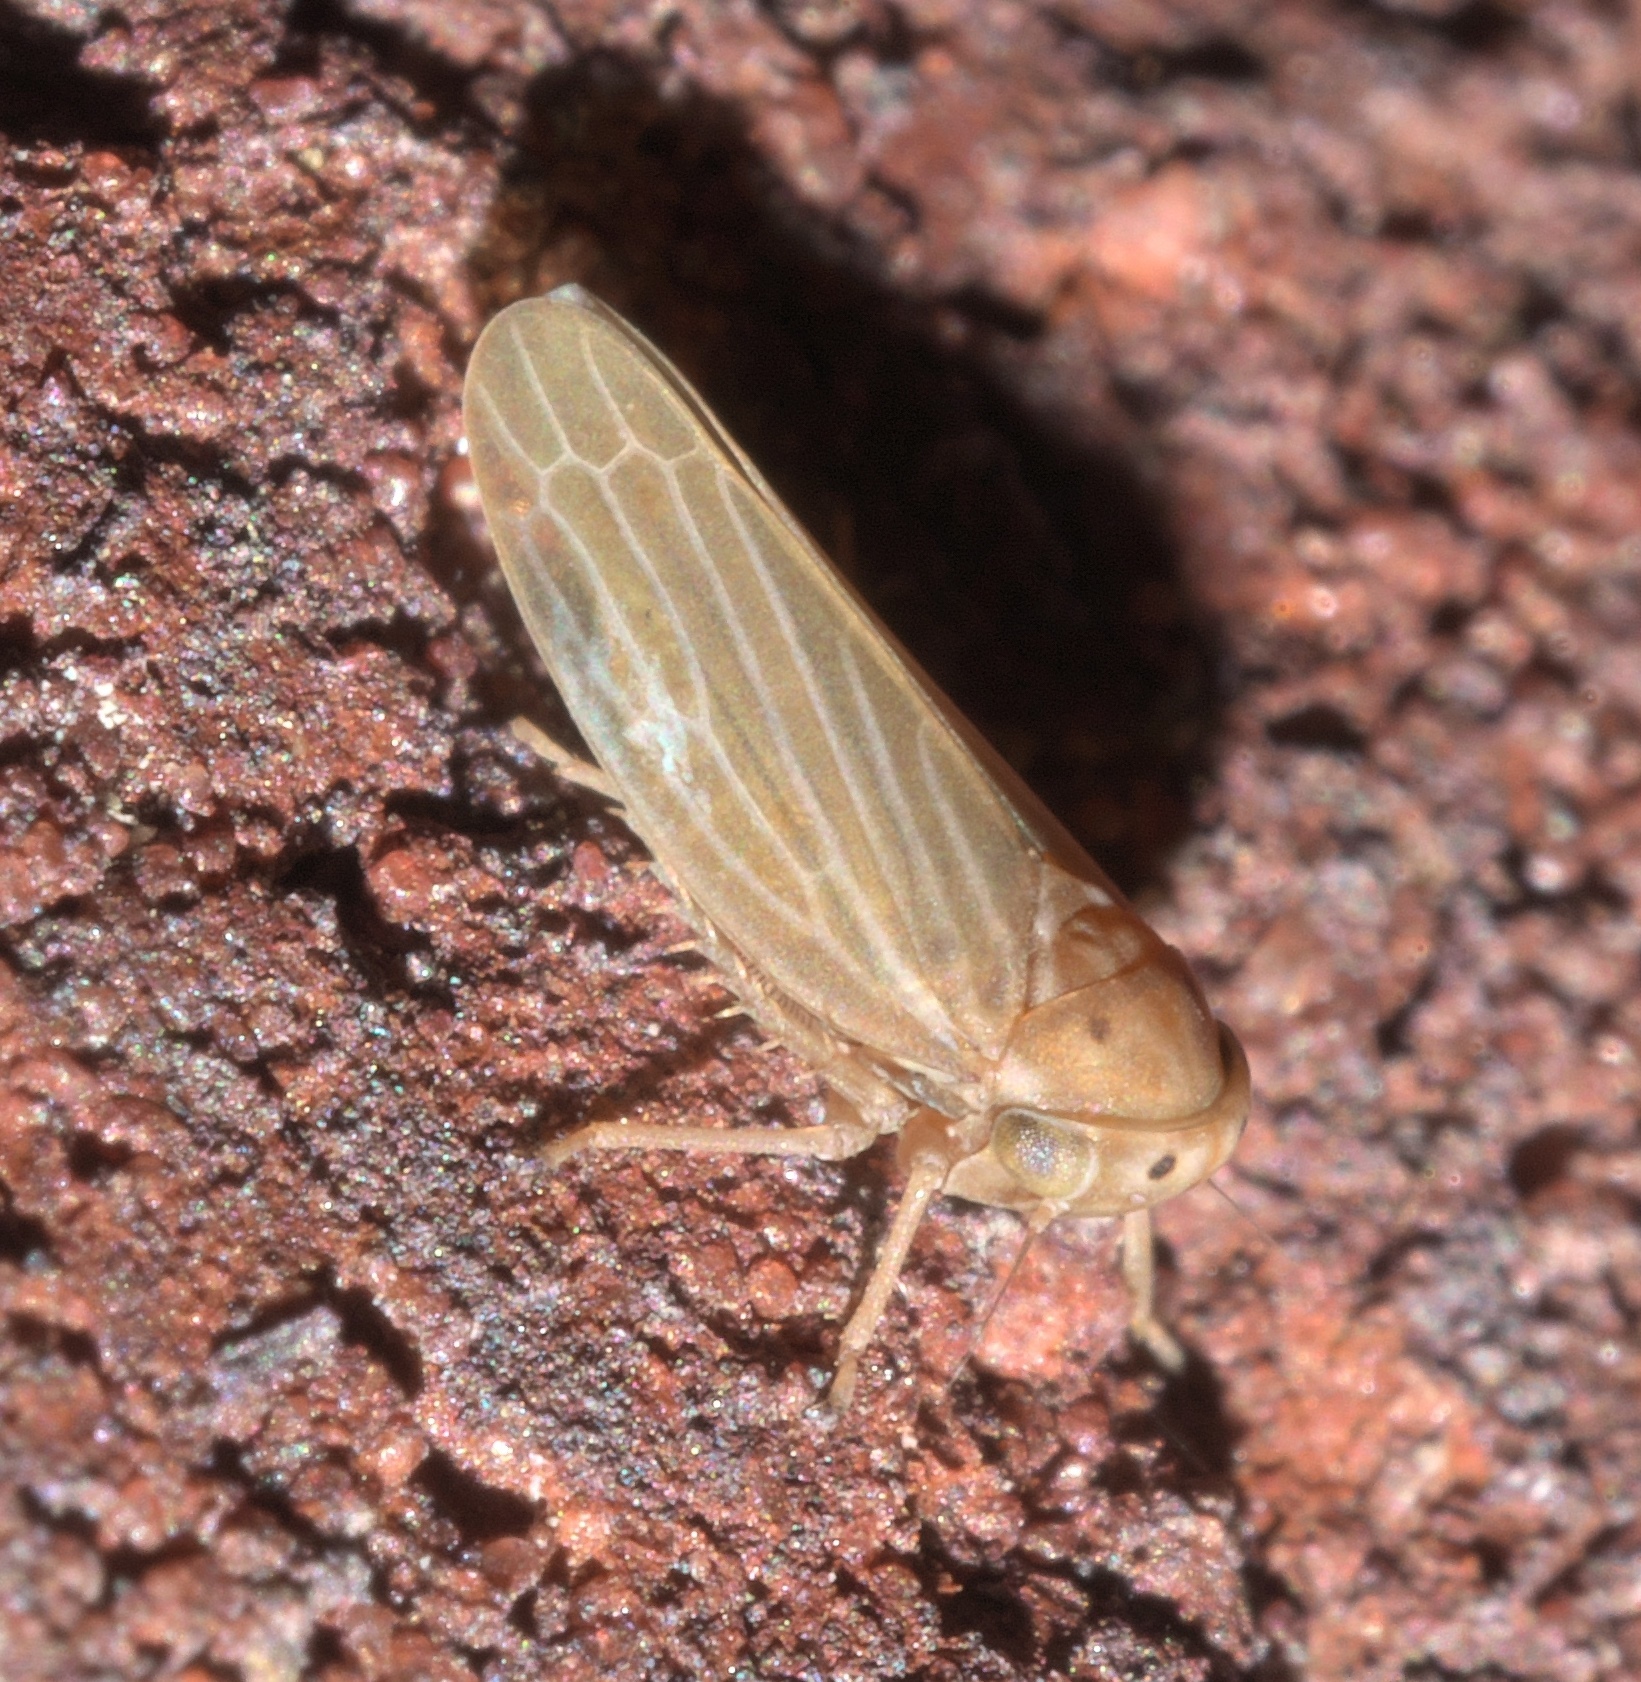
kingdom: Animalia
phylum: Arthropoda
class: Insecta
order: Hemiptera
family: Cicadellidae
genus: Agallia
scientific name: Agallia constricta
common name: The constricted leafhopper
